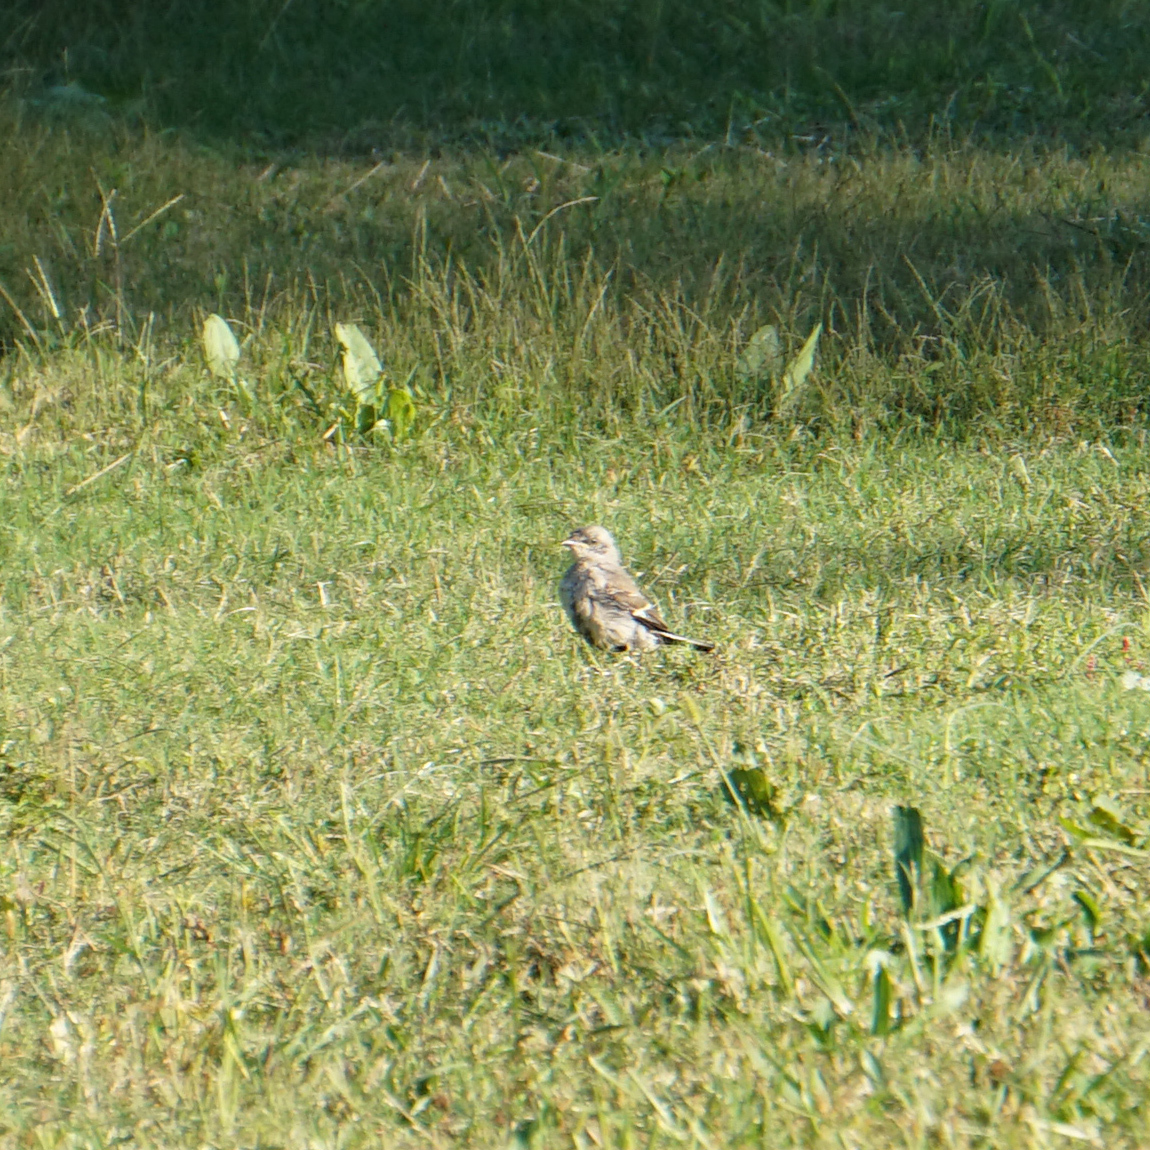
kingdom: Animalia
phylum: Chordata
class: Aves
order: Passeriformes
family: Mimidae
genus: Mimus
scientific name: Mimus polyglottos
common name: Northern mockingbird
